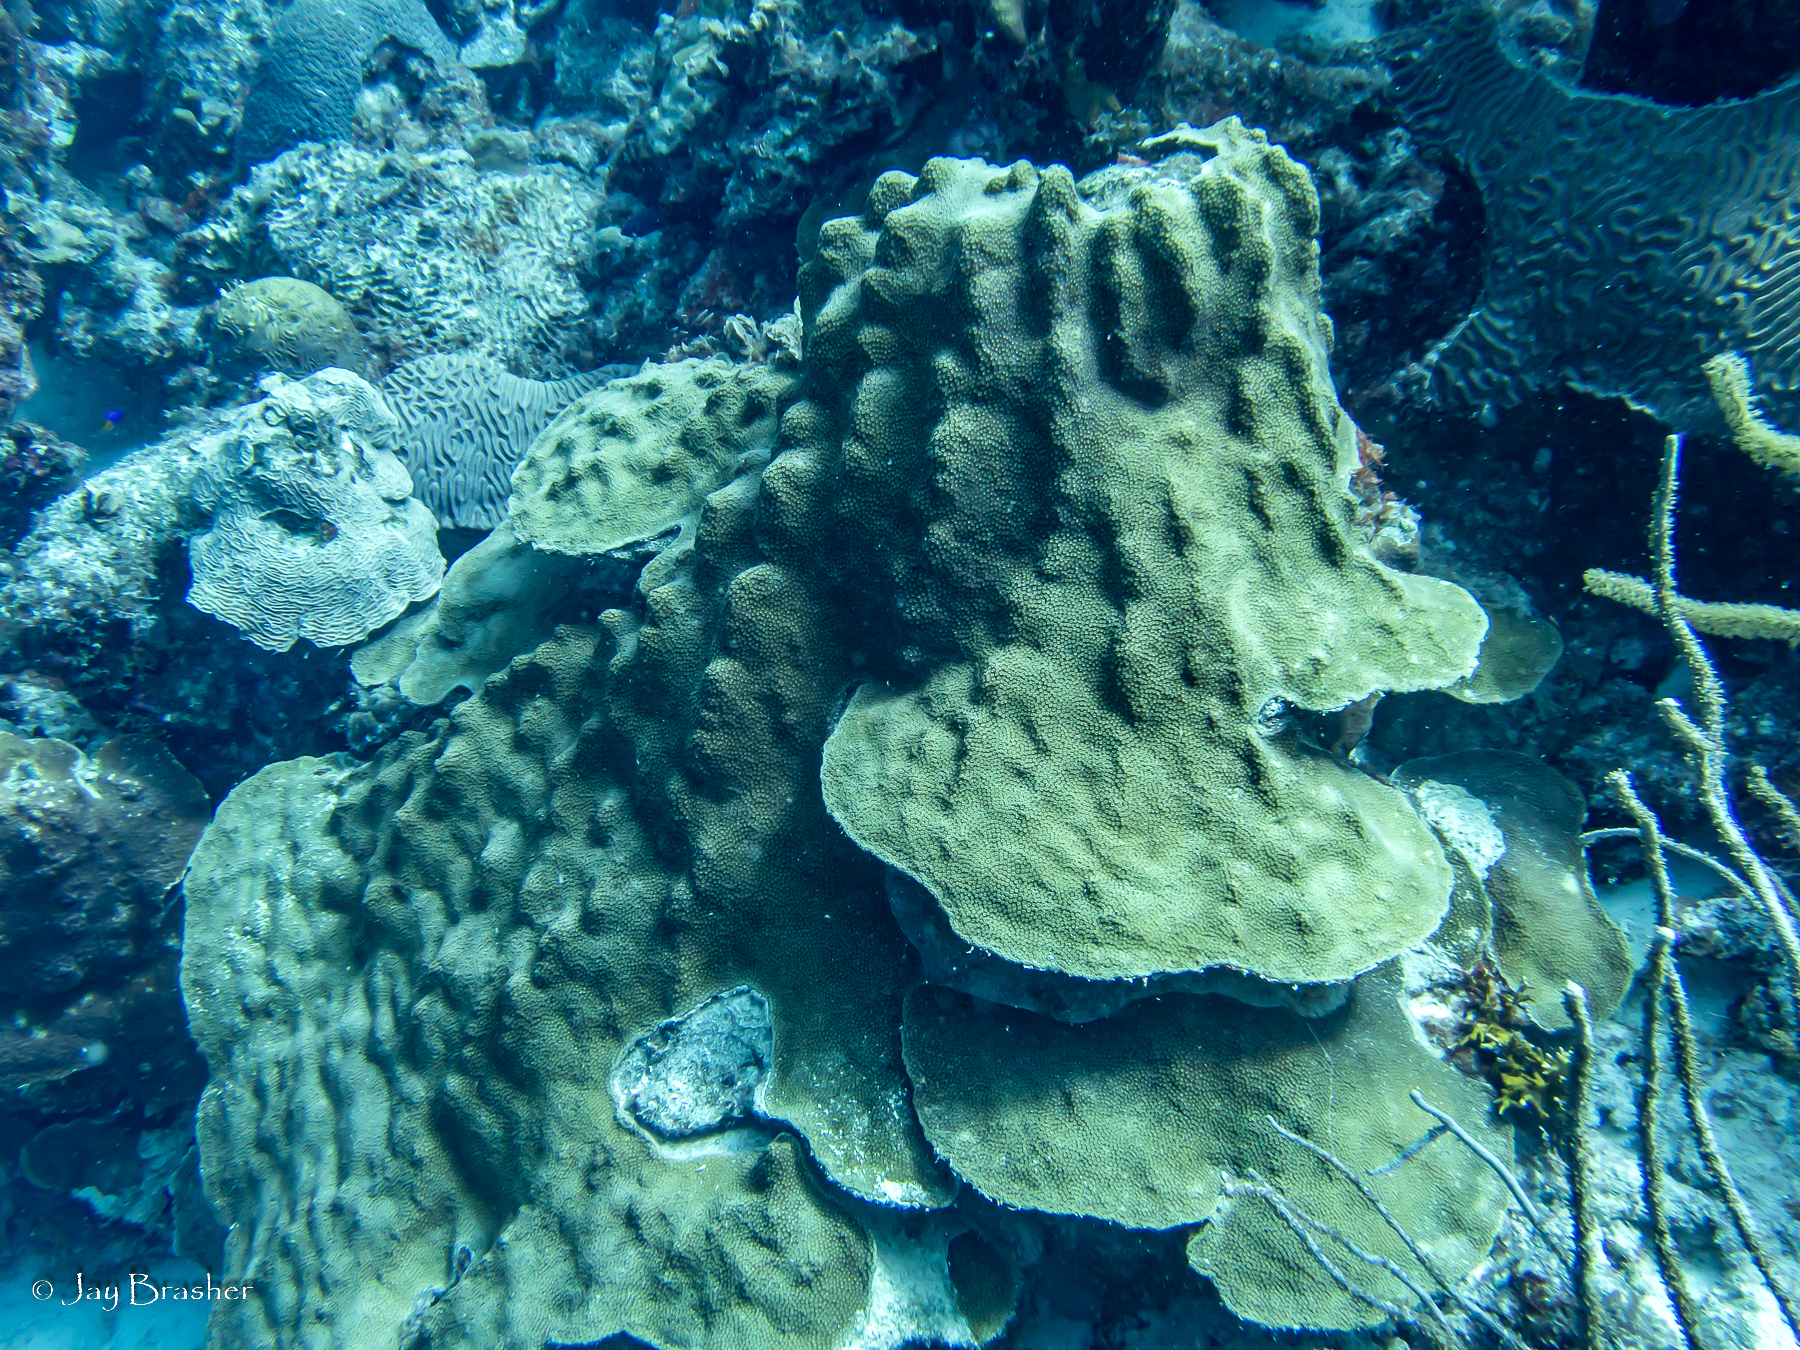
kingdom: Animalia
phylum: Cnidaria
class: Anthozoa
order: Scleractinia
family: Merulinidae
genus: Orbicella
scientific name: Orbicella faveolata
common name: Mountainous star coral
